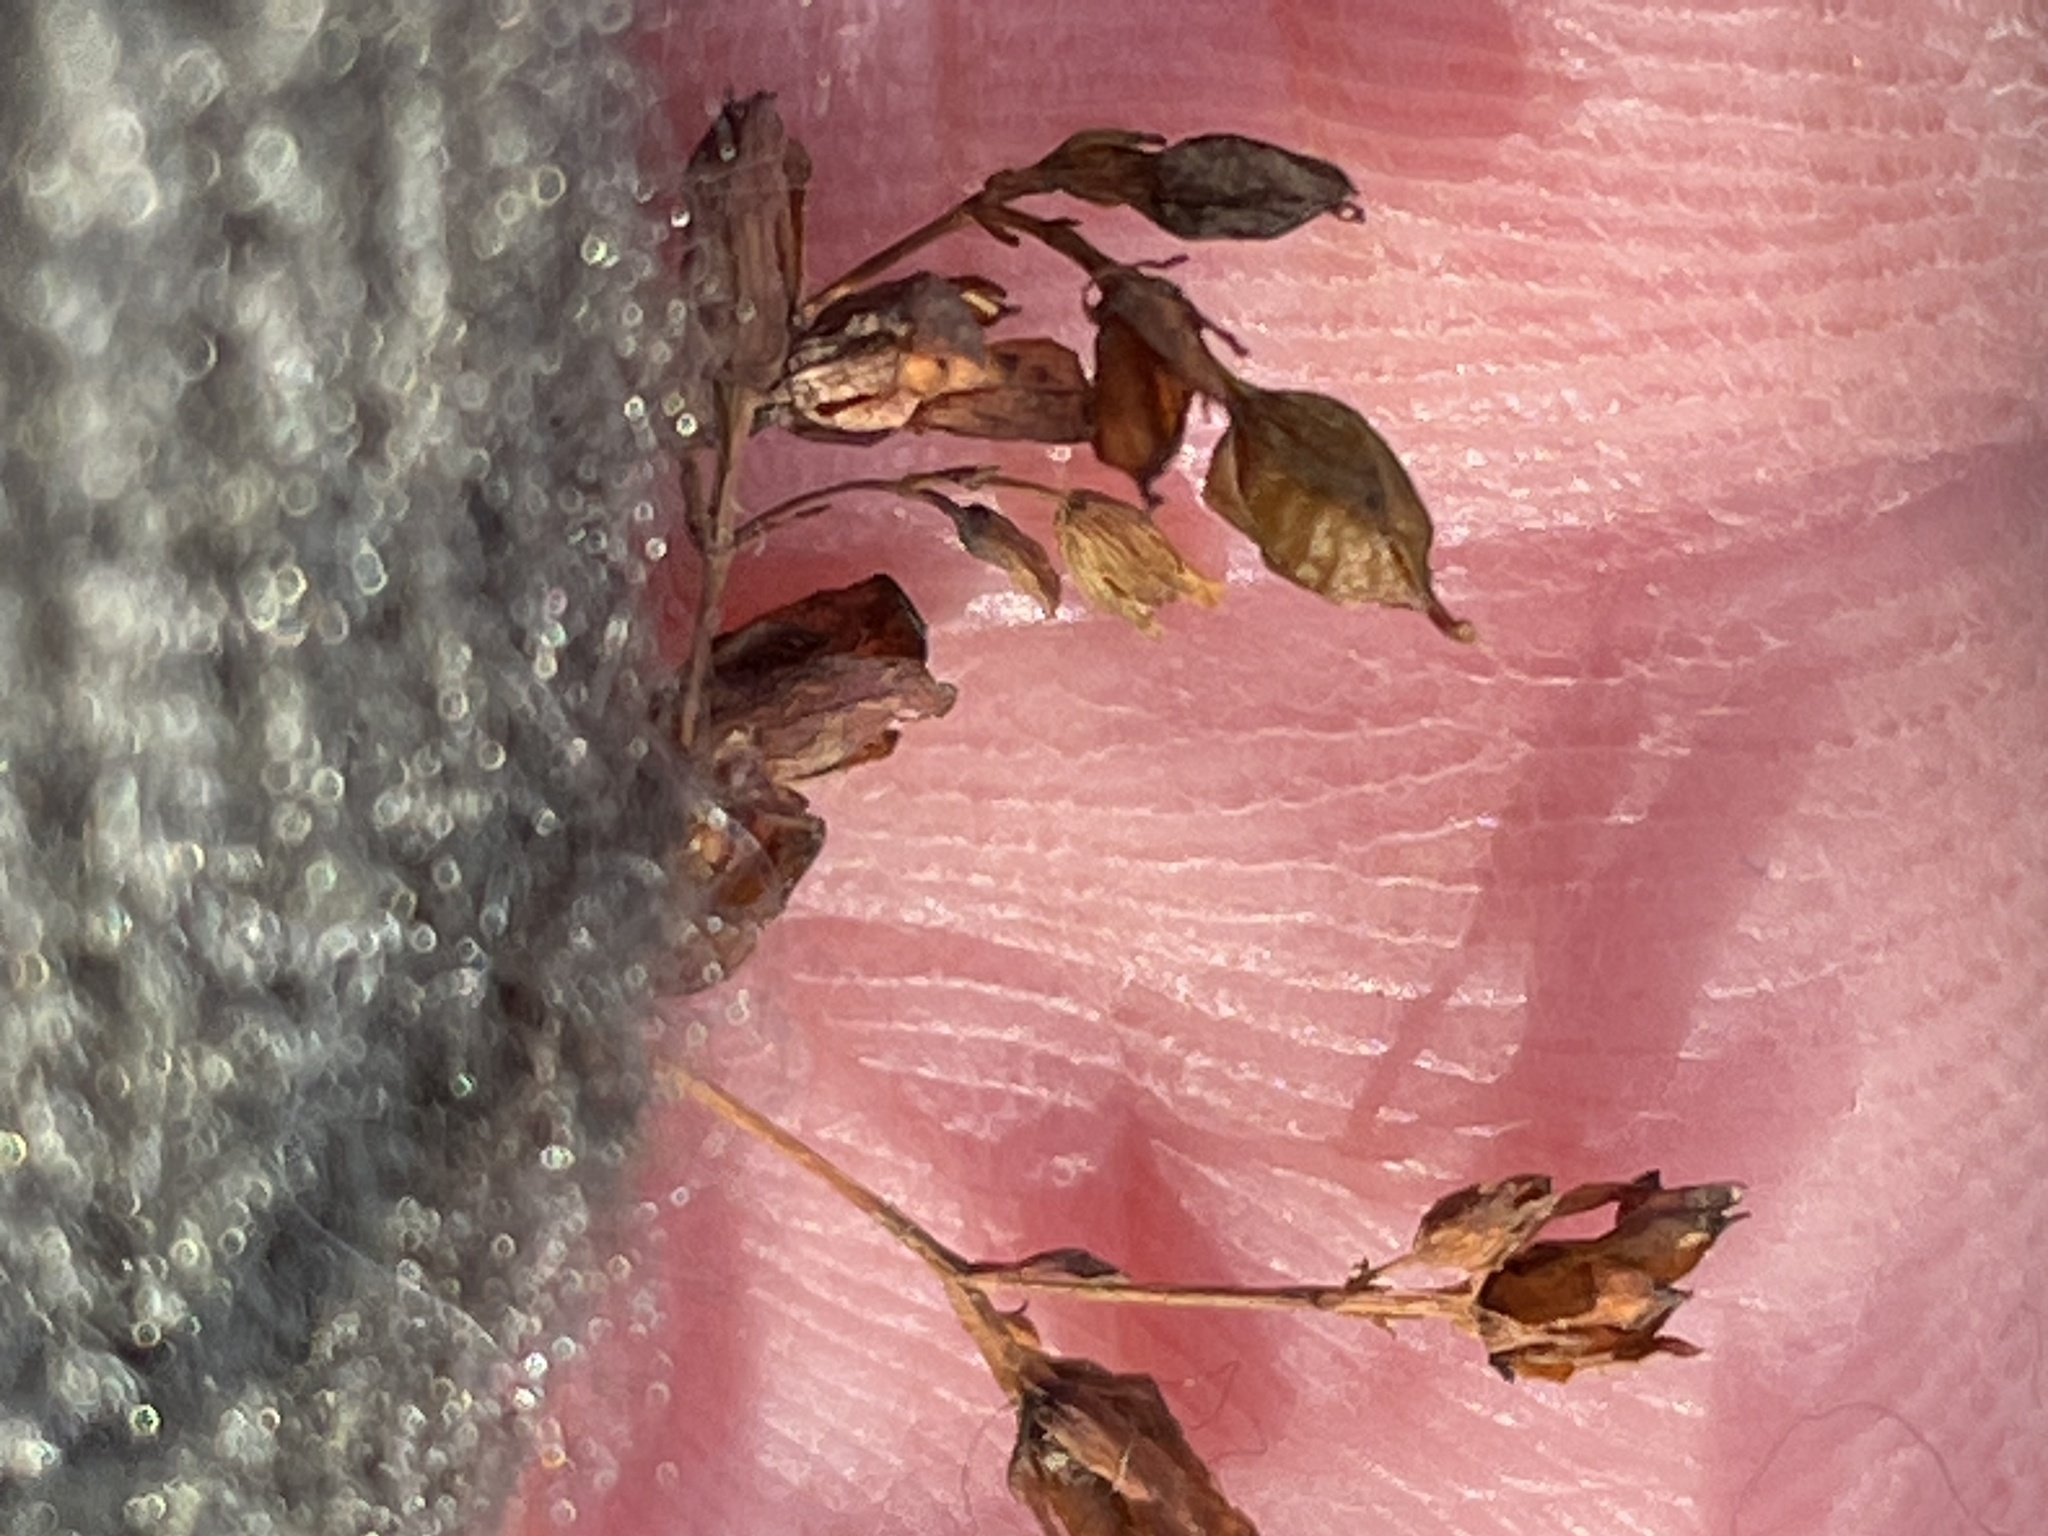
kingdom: Plantae
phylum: Tracheophyta
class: Magnoliopsida
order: Malpighiales
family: Hypericaceae
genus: Hypericum
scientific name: Hypericum mutilum
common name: Dwarf st. john's-wort
